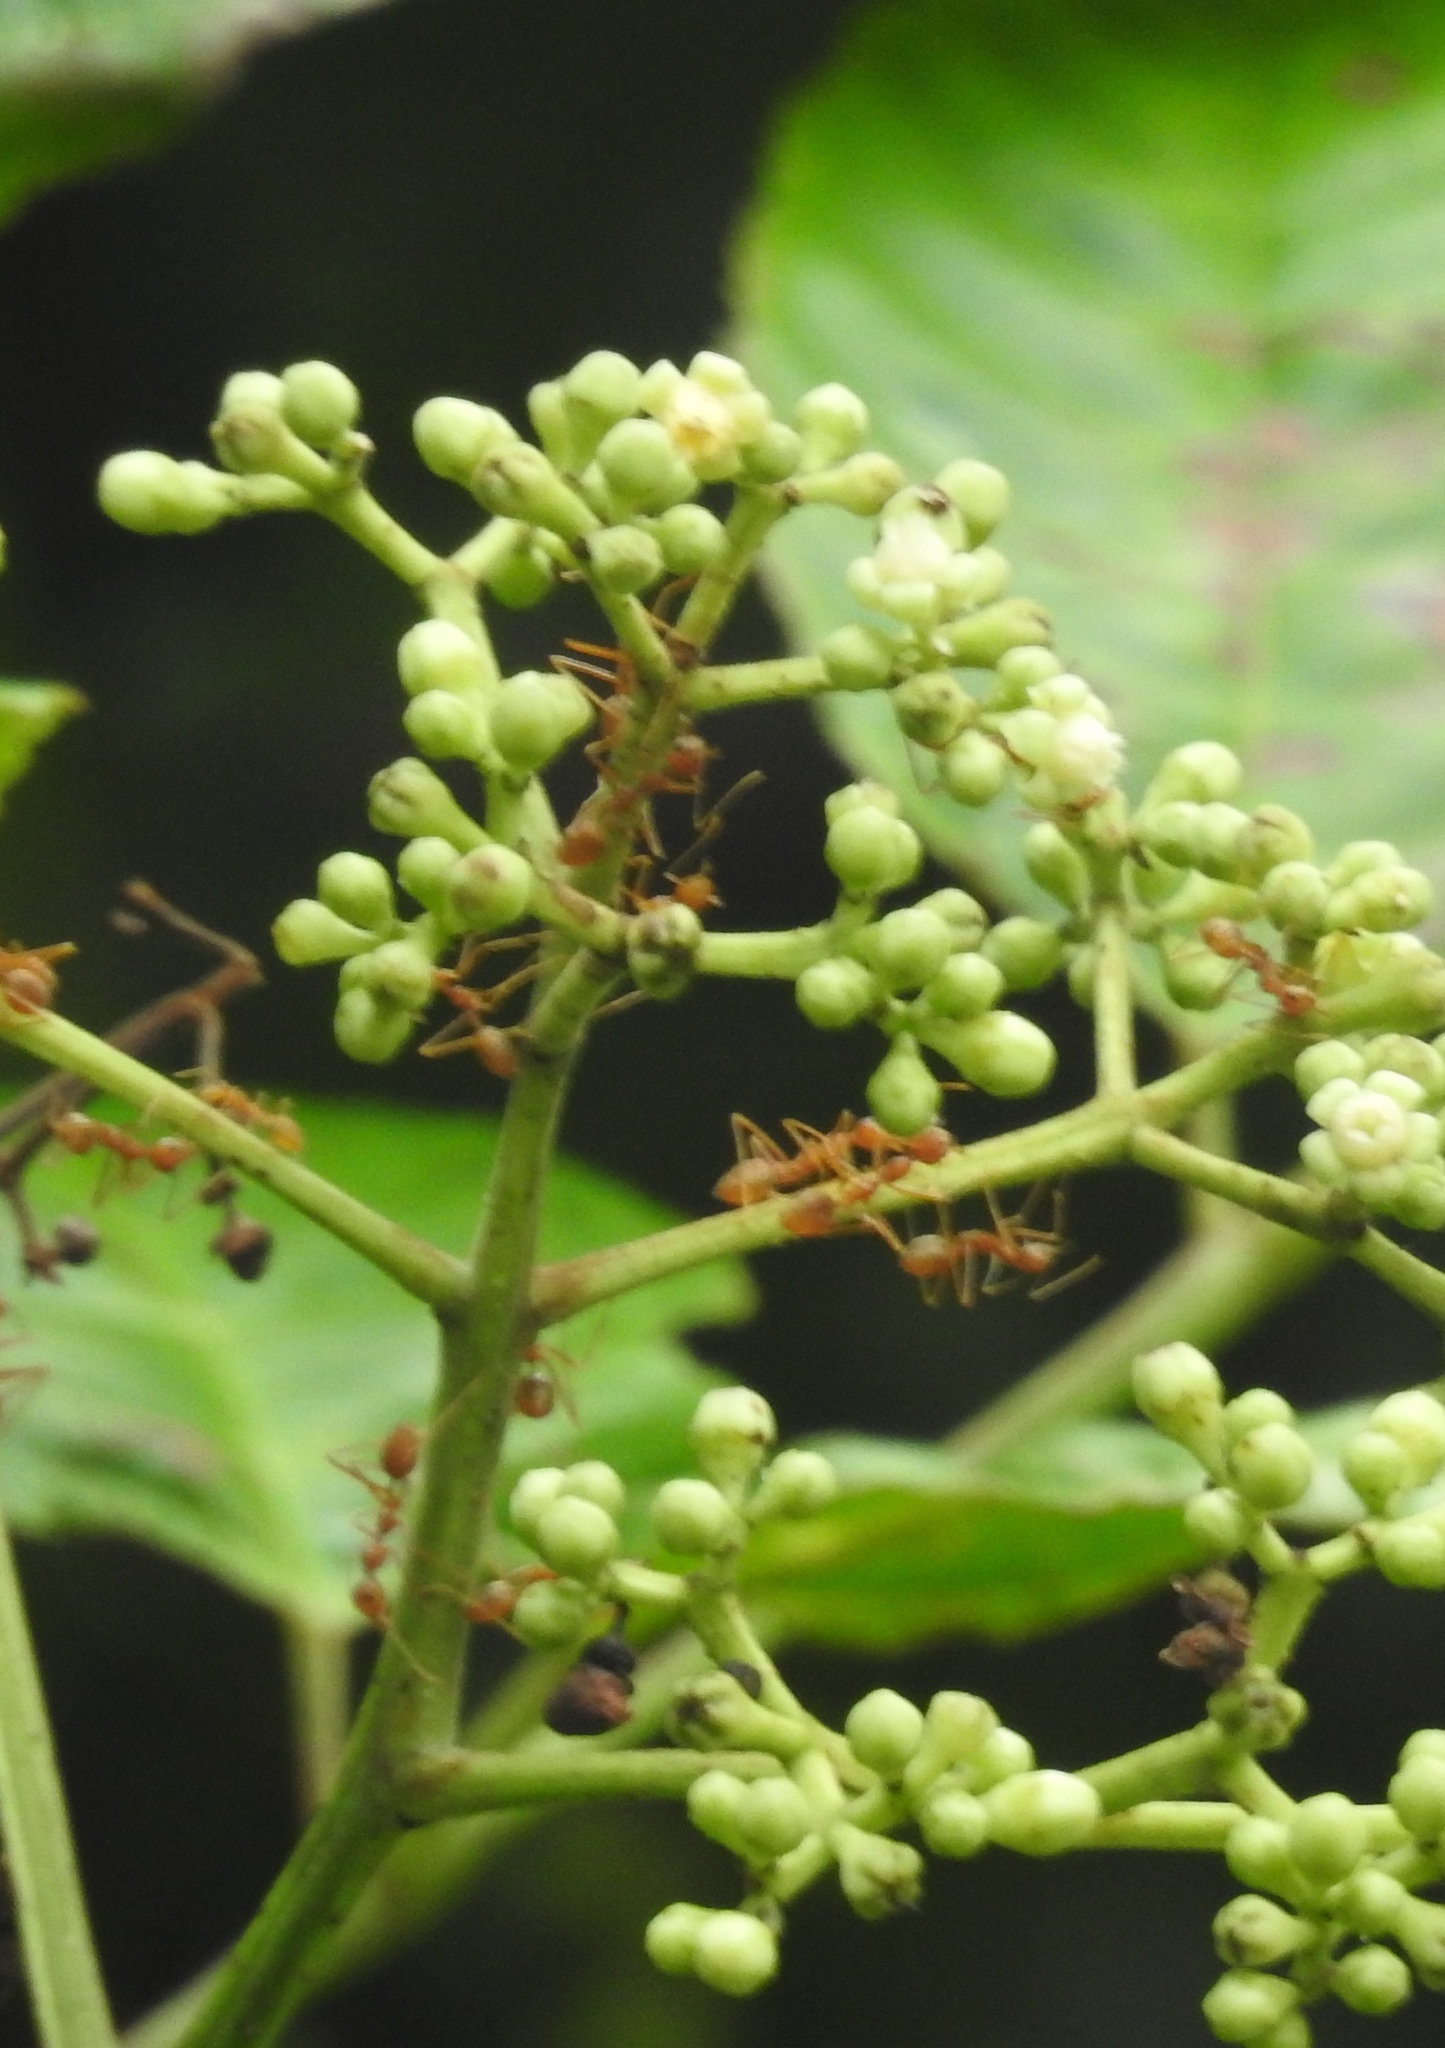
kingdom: Animalia
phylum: Arthropoda
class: Insecta
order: Hymenoptera
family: Formicidae
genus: Oecophylla
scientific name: Oecophylla smaragdina
